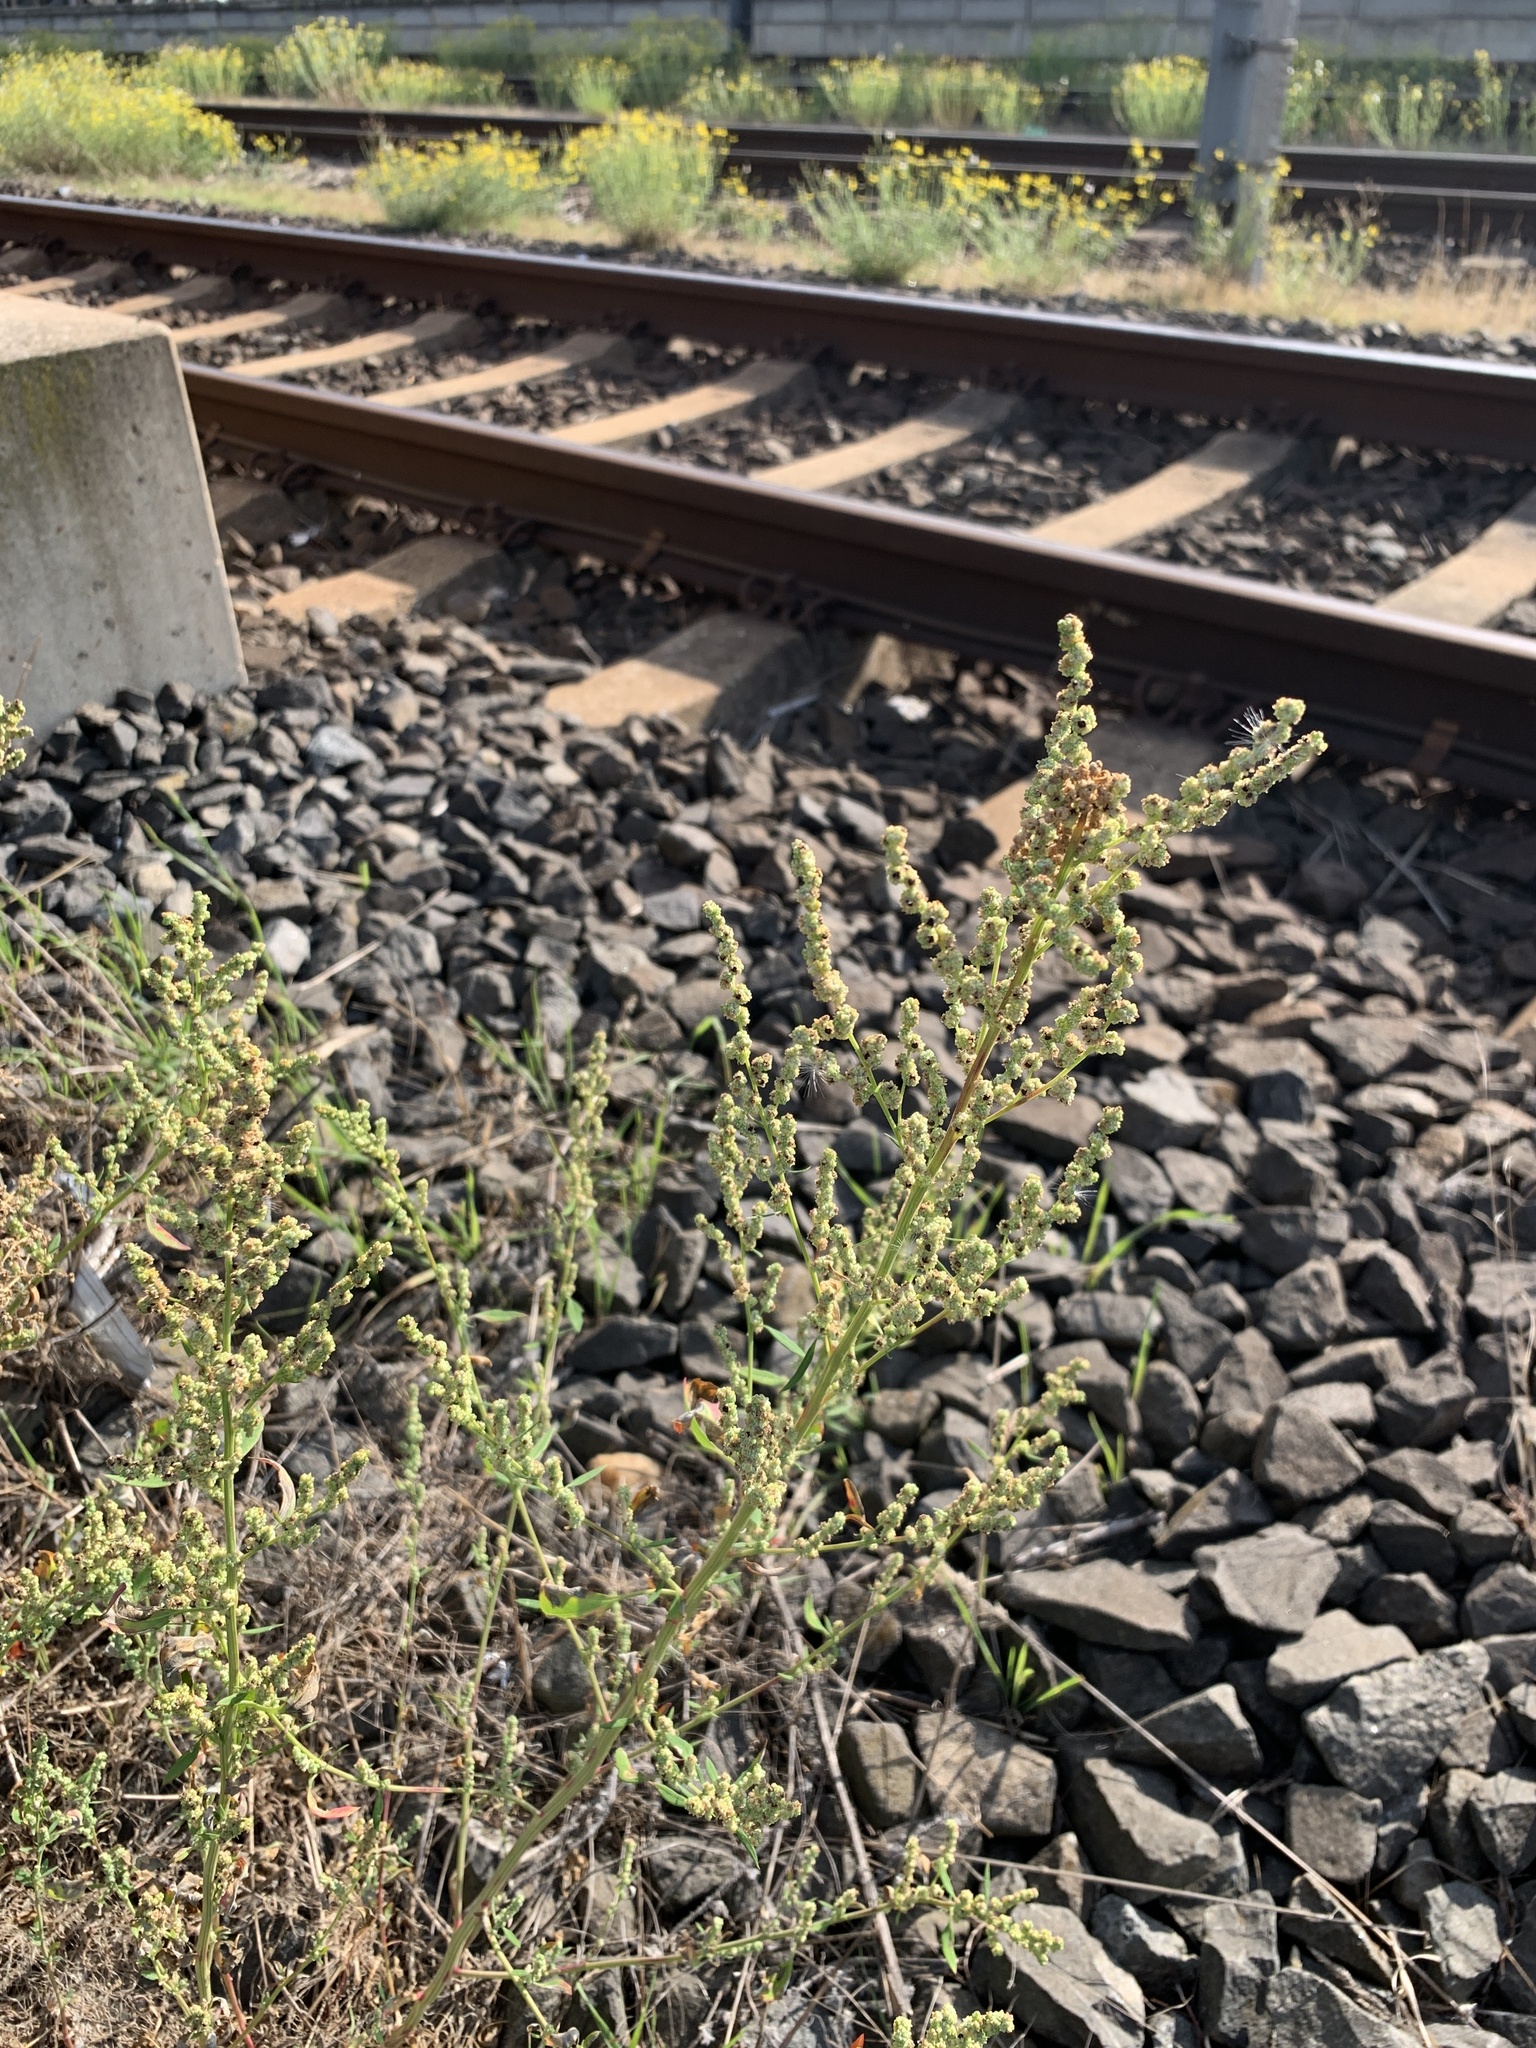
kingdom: Plantae
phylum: Tracheophyta
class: Magnoliopsida
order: Caryophyllales
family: Amaranthaceae
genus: Chenopodium
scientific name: Chenopodium album
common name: Fat-hen
